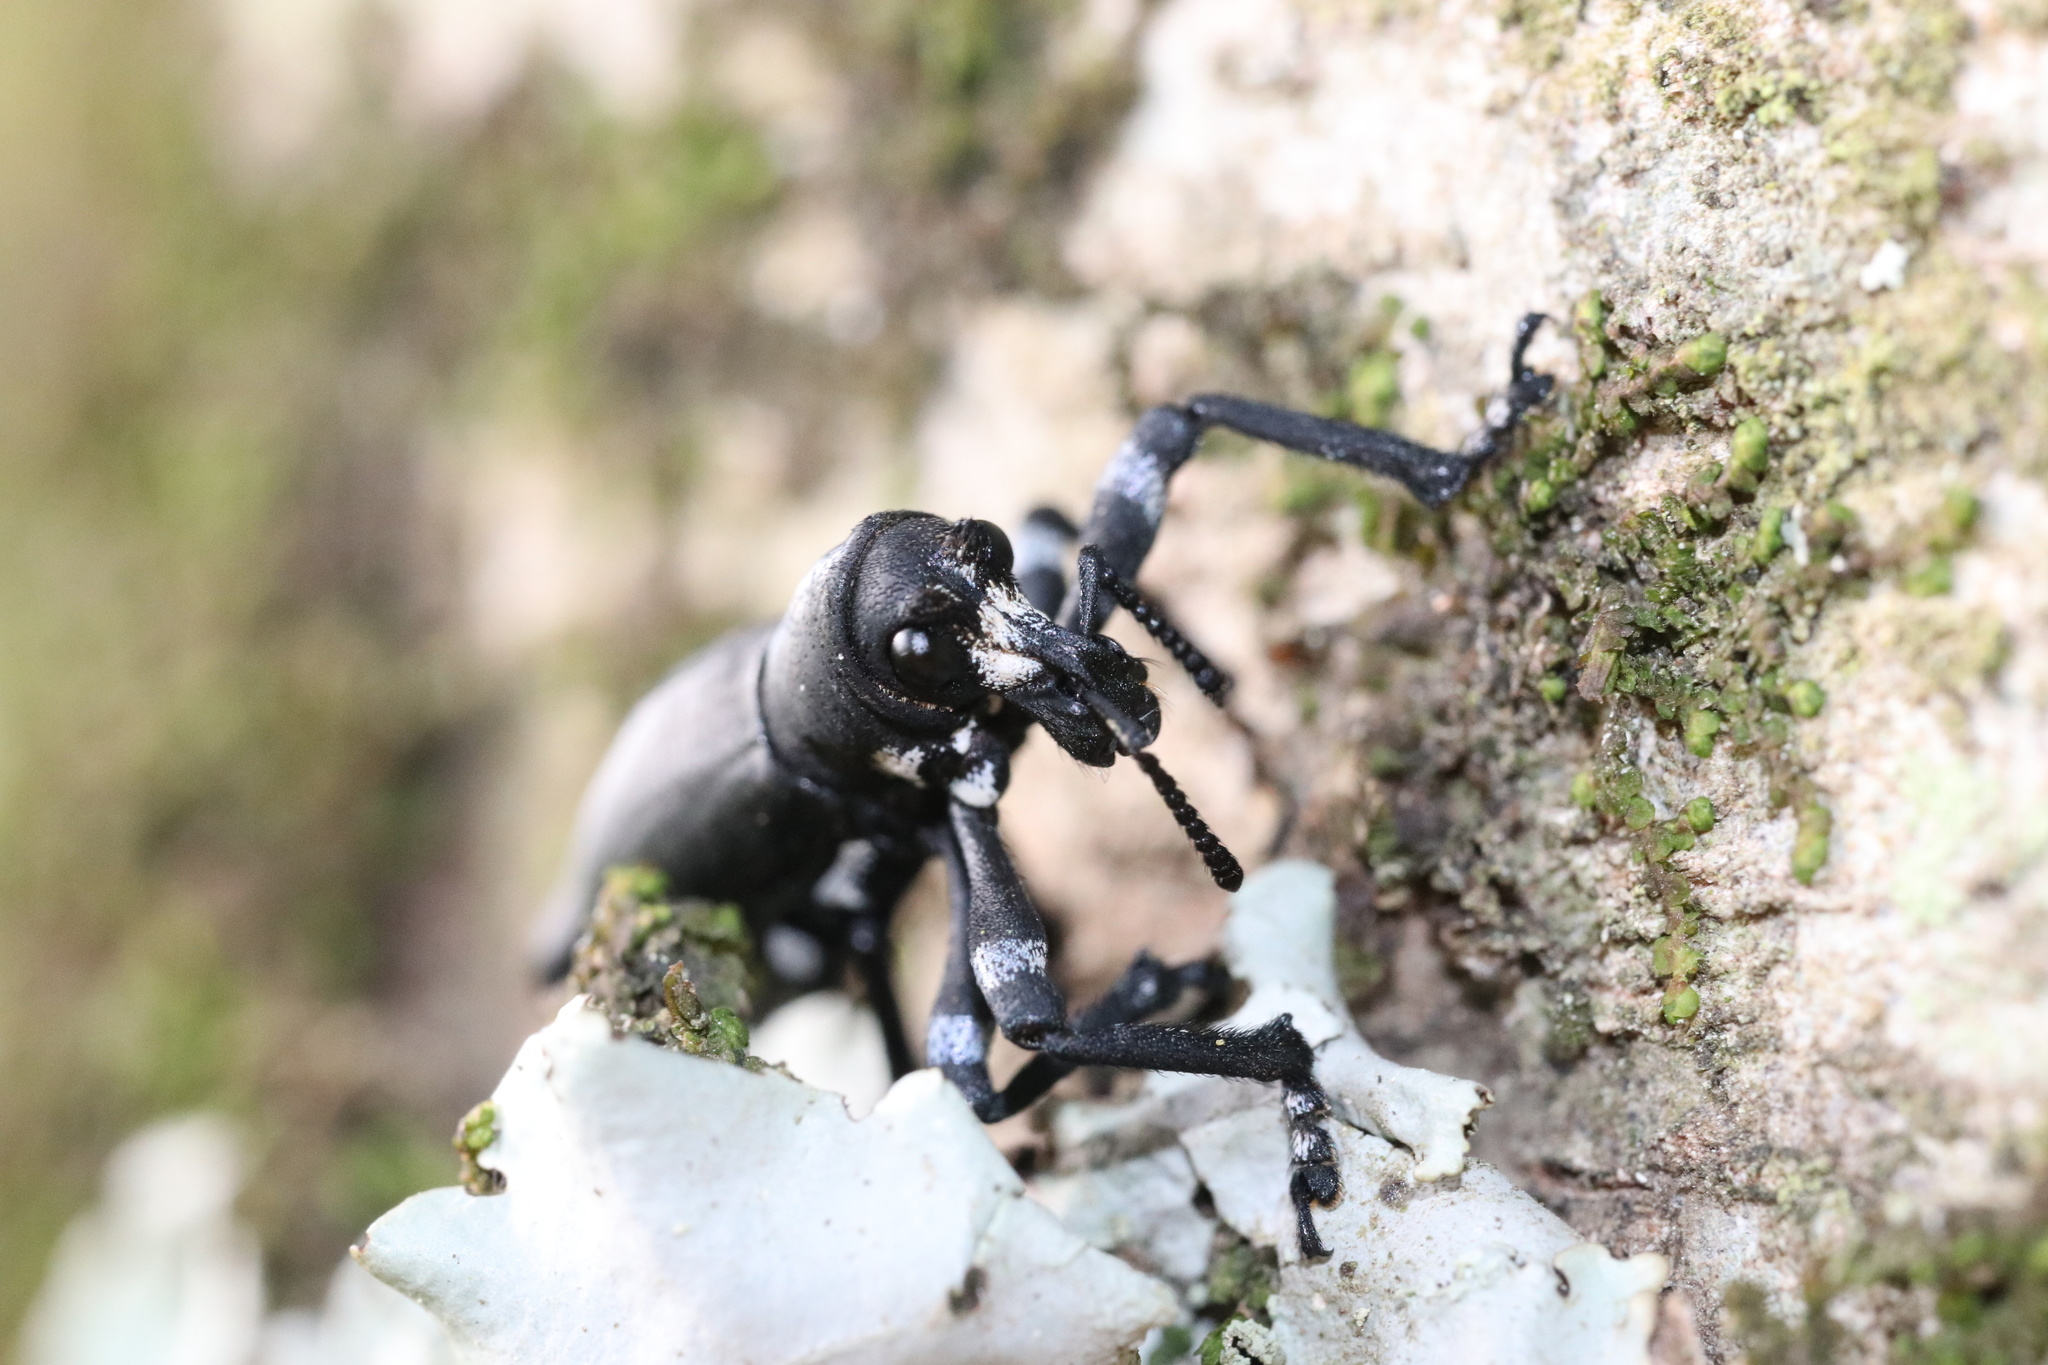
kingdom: Animalia
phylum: Arthropoda
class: Insecta
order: Coleoptera
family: Curculionidae
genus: Aegorhinus
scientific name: Aegorhinus
